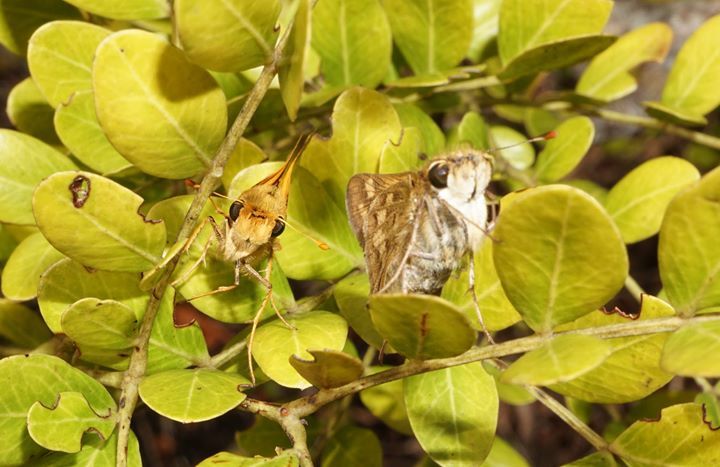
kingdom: Animalia
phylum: Arthropoda
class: Insecta
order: Lepidoptera
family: Hesperiidae
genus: Hylephila
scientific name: Hylephila phyleus
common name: Fiery skipper
